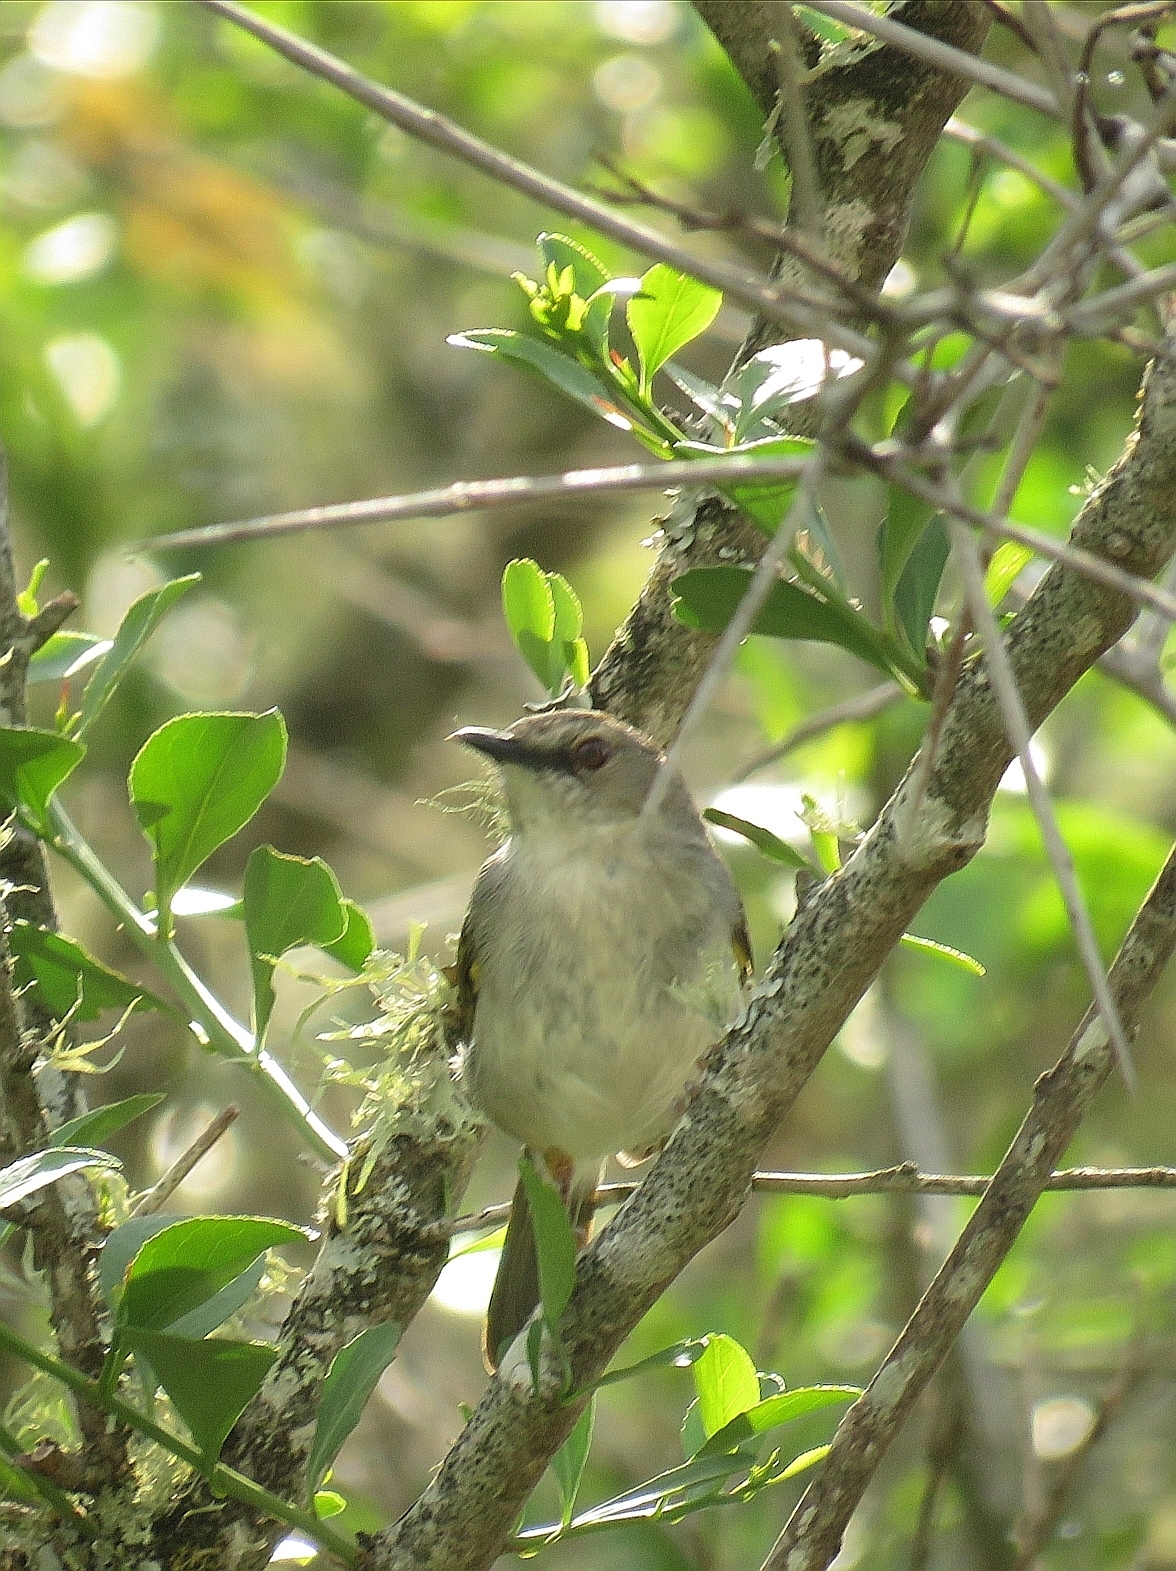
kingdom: Animalia
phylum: Chordata
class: Aves
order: Passeriformes
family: Cisticolidae
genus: Camaroptera
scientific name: Camaroptera brachyura
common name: Green-backed camaroptera
